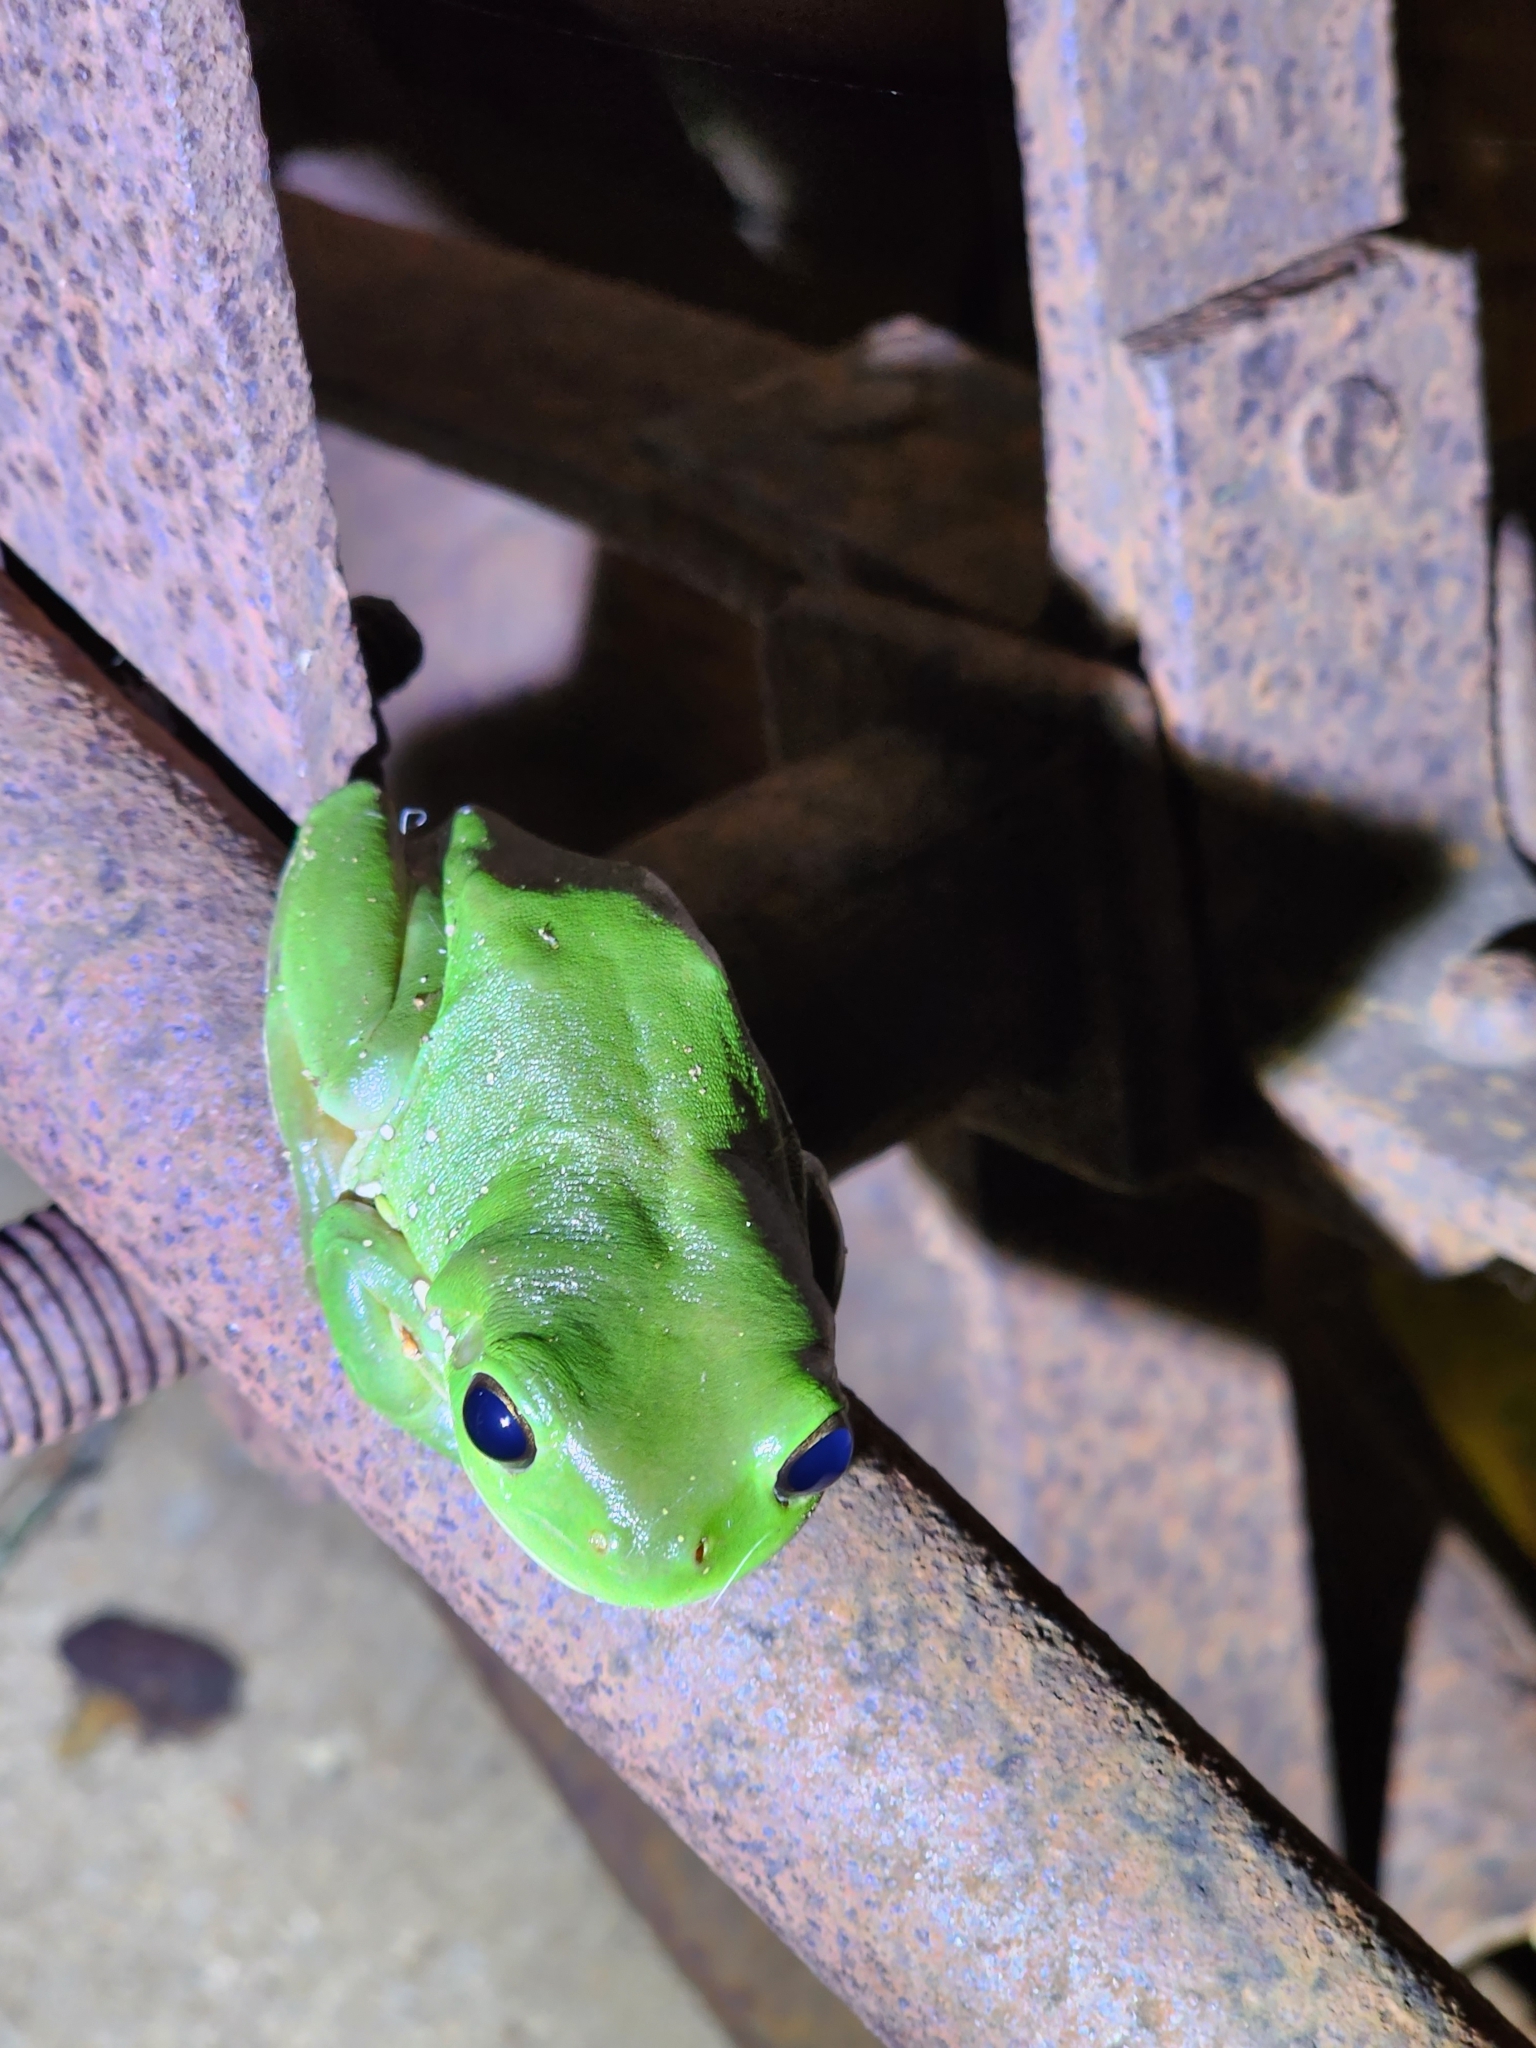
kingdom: Animalia
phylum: Chordata
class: Amphibia
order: Anura
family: Pelodryadidae
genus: Ranoidea
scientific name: Ranoidea caerulea
